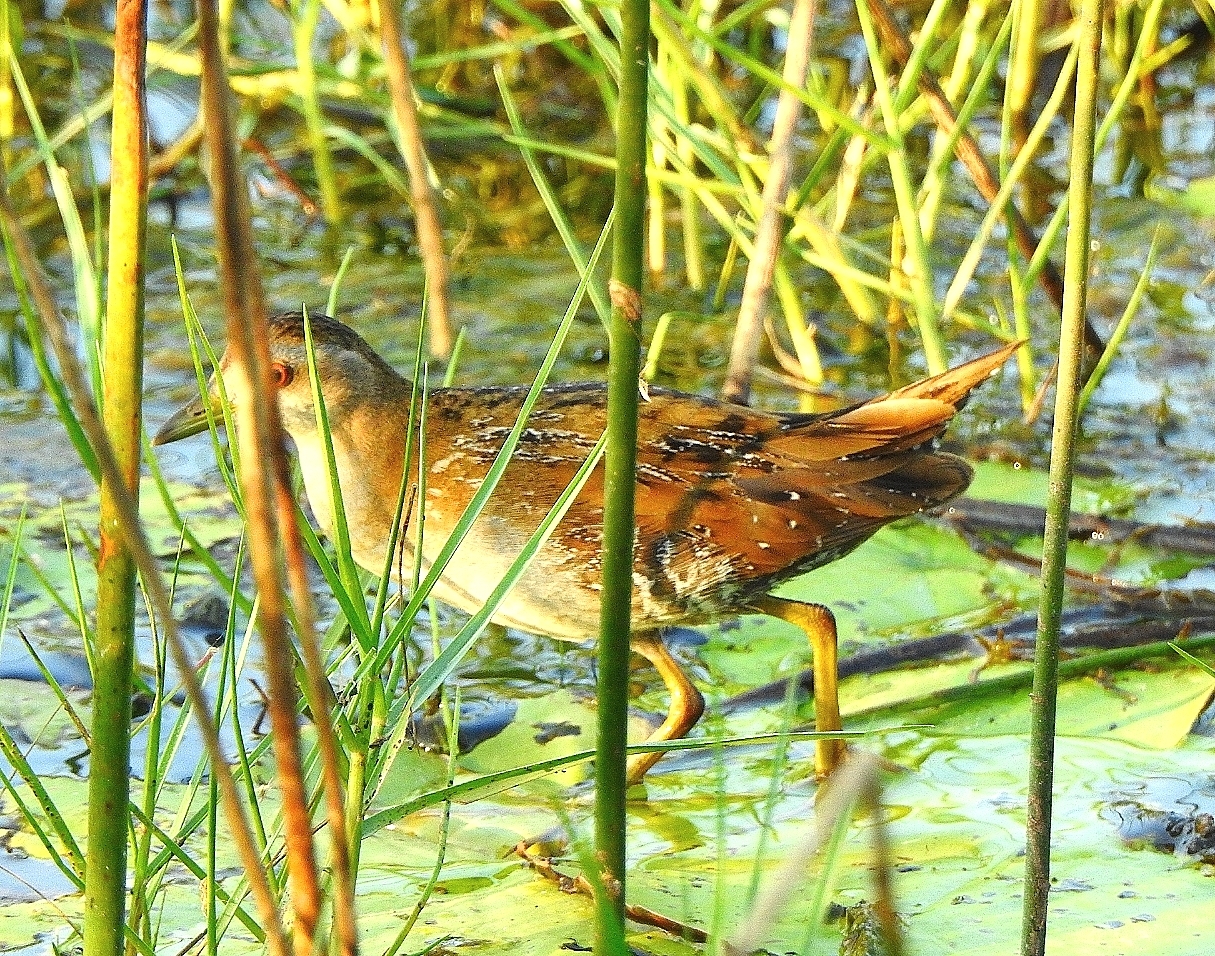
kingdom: Animalia
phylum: Chordata
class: Aves
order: Gruiformes
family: Rallidae
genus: Porzana
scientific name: Porzana pusilla
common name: Baillon's crake
